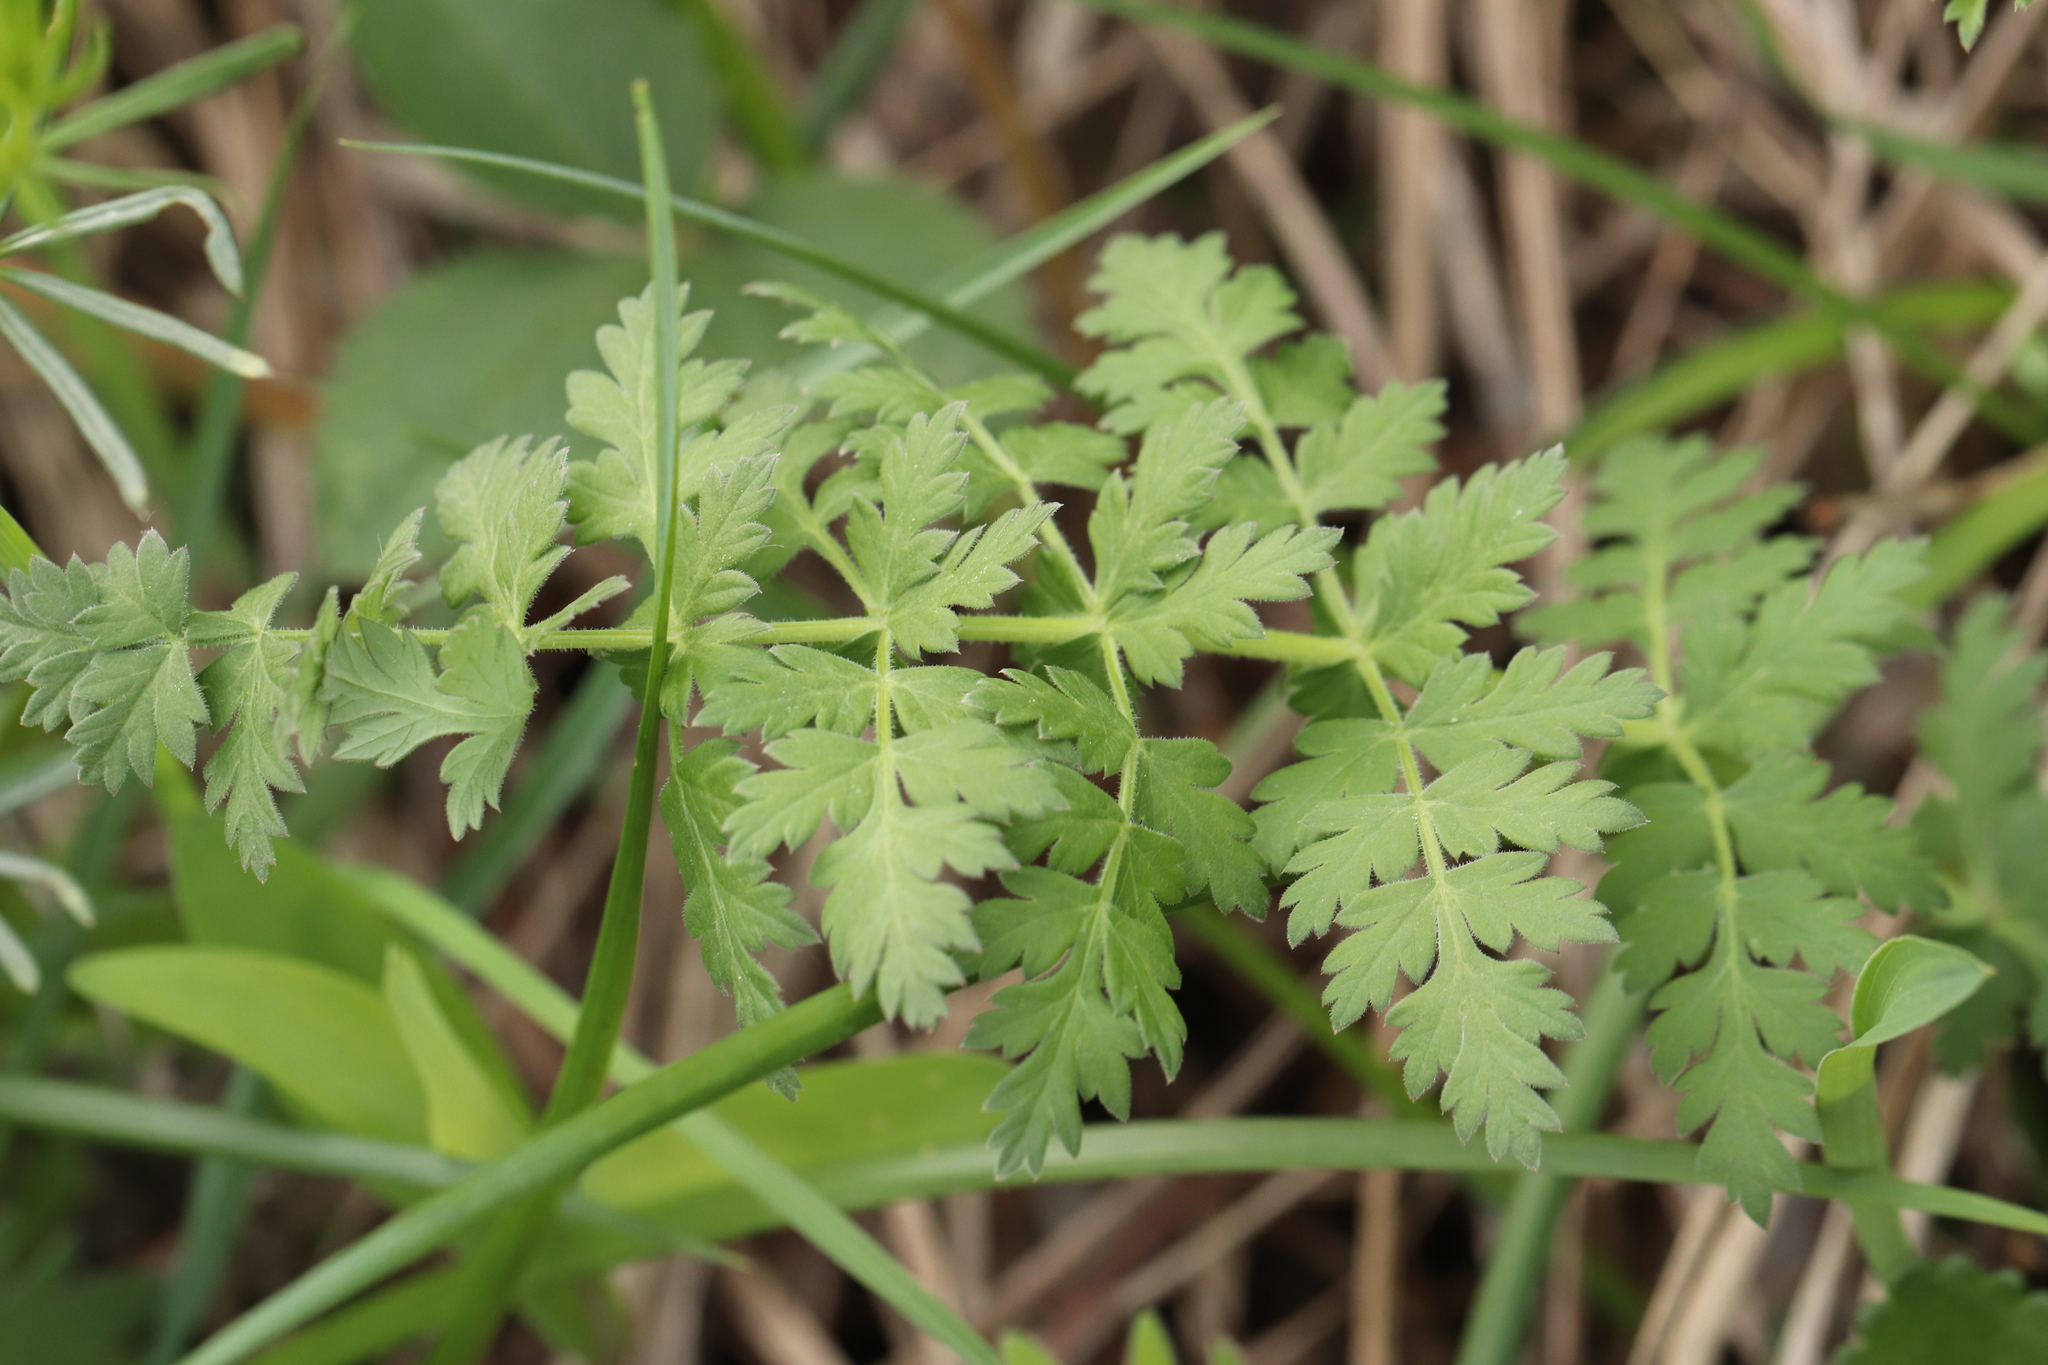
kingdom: Plantae
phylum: Tracheophyta
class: Magnoliopsida
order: Apiales
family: Apiaceae
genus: Seseli
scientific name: Seseli libanotis
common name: Mooncarrot
